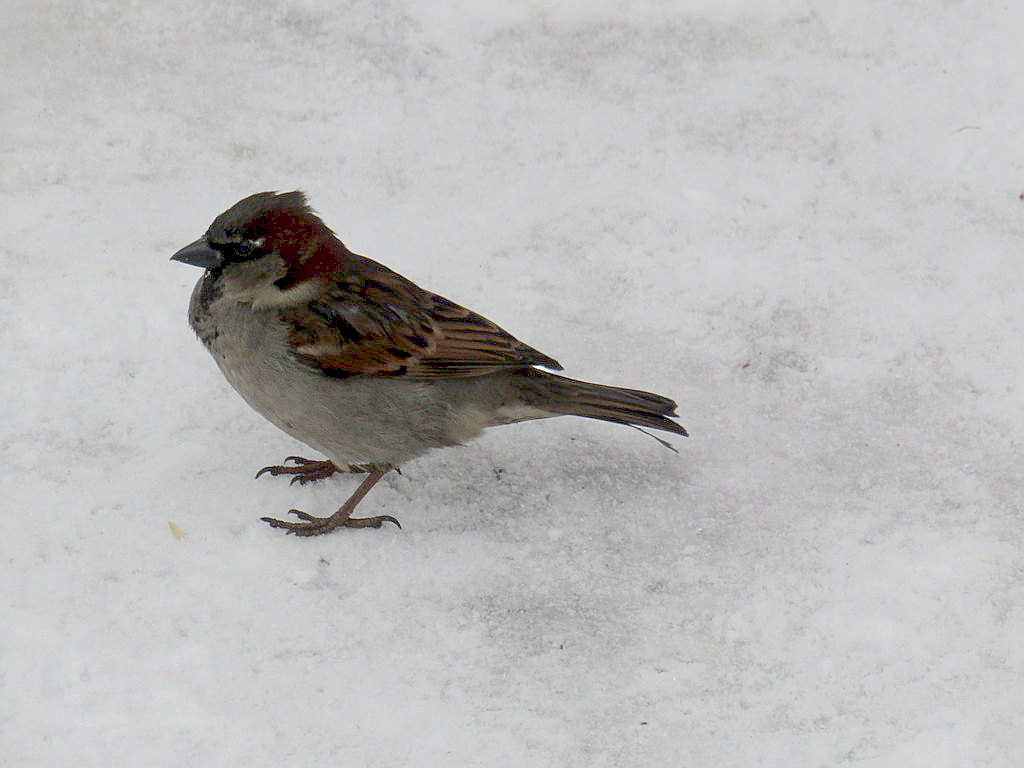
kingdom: Animalia
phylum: Chordata
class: Aves
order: Passeriformes
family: Passeridae
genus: Passer
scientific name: Passer domesticus
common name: House sparrow
